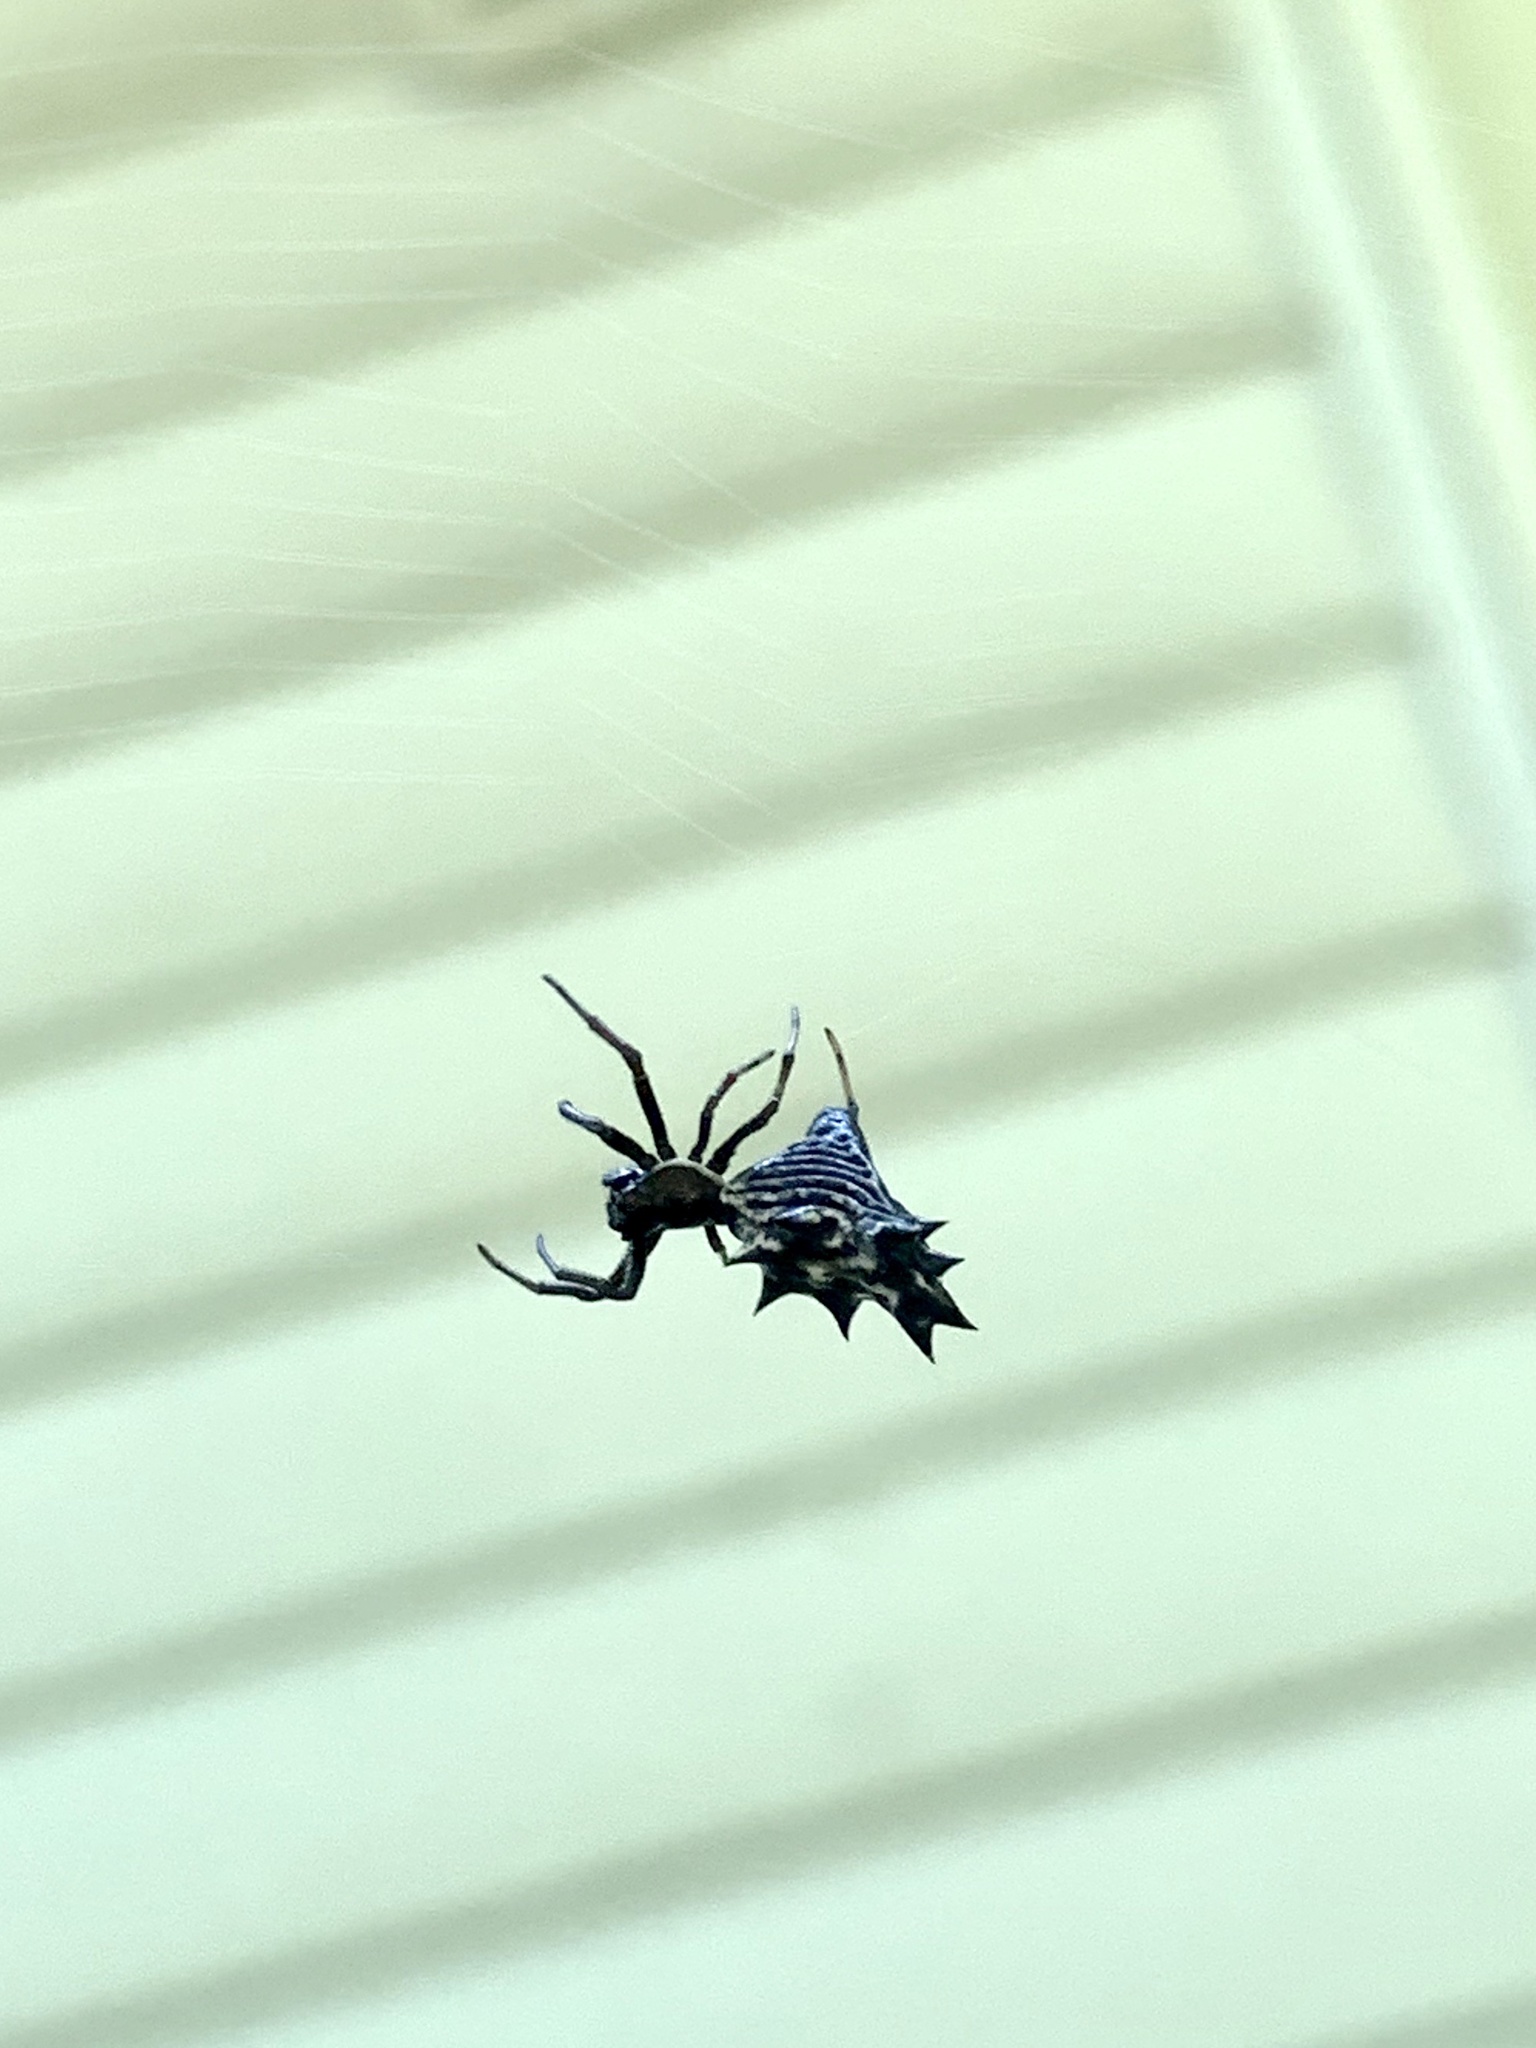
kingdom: Animalia
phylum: Arthropoda
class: Arachnida
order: Araneae
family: Araneidae
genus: Micrathena
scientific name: Micrathena gracilis
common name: Orb weavers
